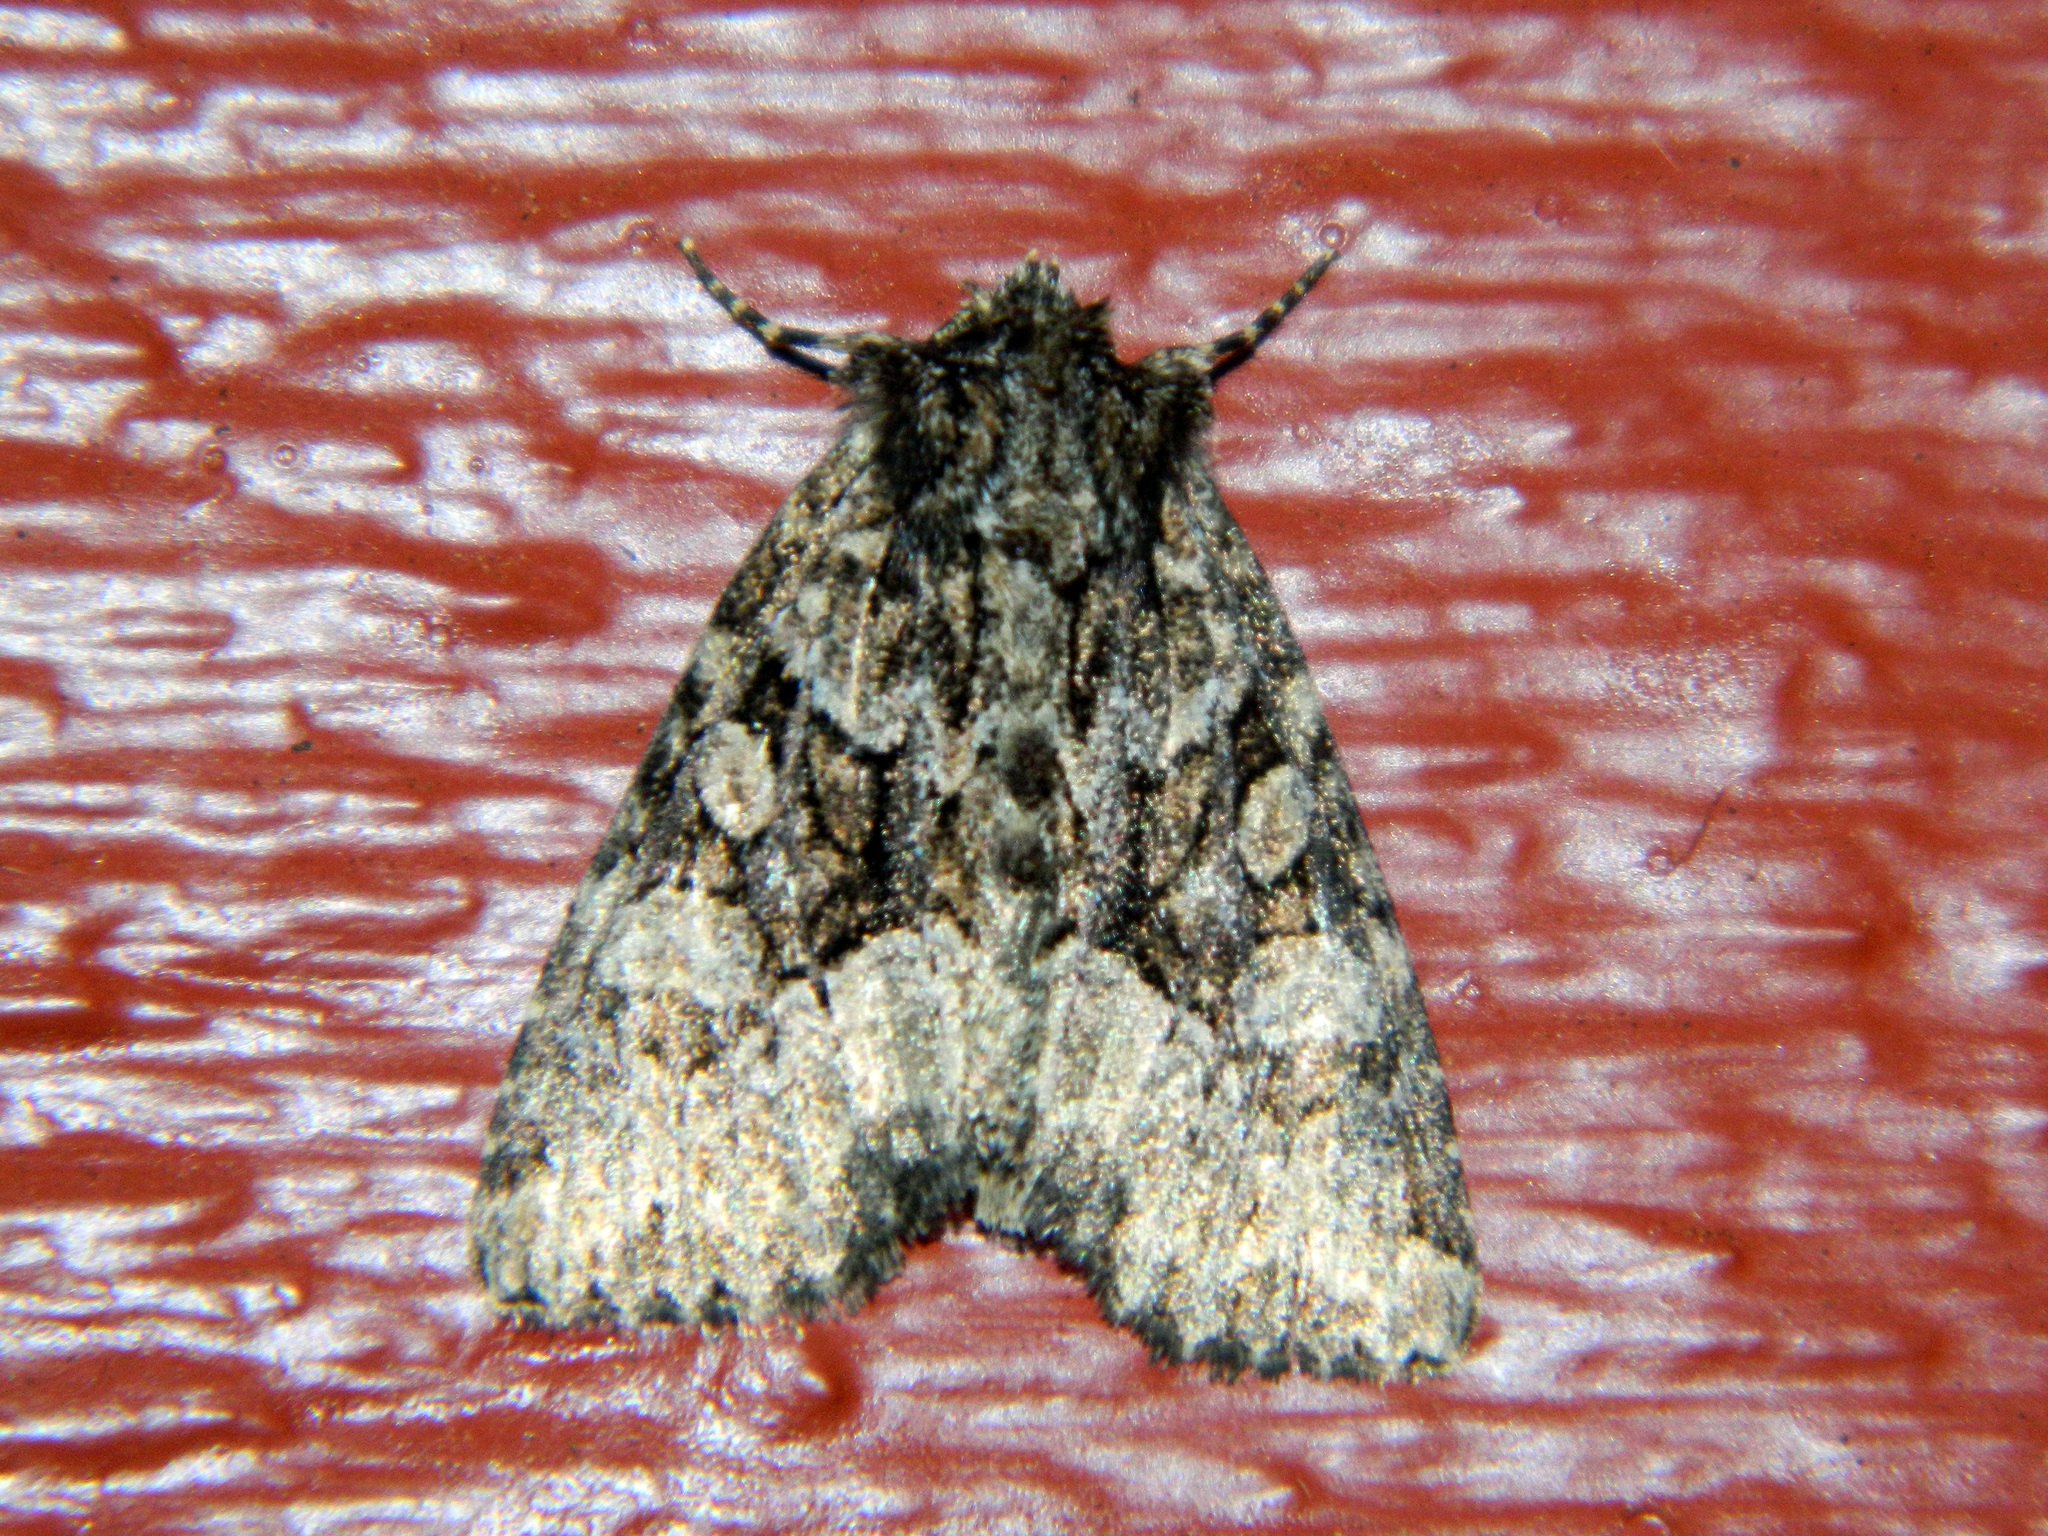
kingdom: Animalia
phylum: Arthropoda
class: Insecta
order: Lepidoptera
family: Noctuidae
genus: Platypolia
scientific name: Platypolia mactata
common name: Adorable brocade moth
